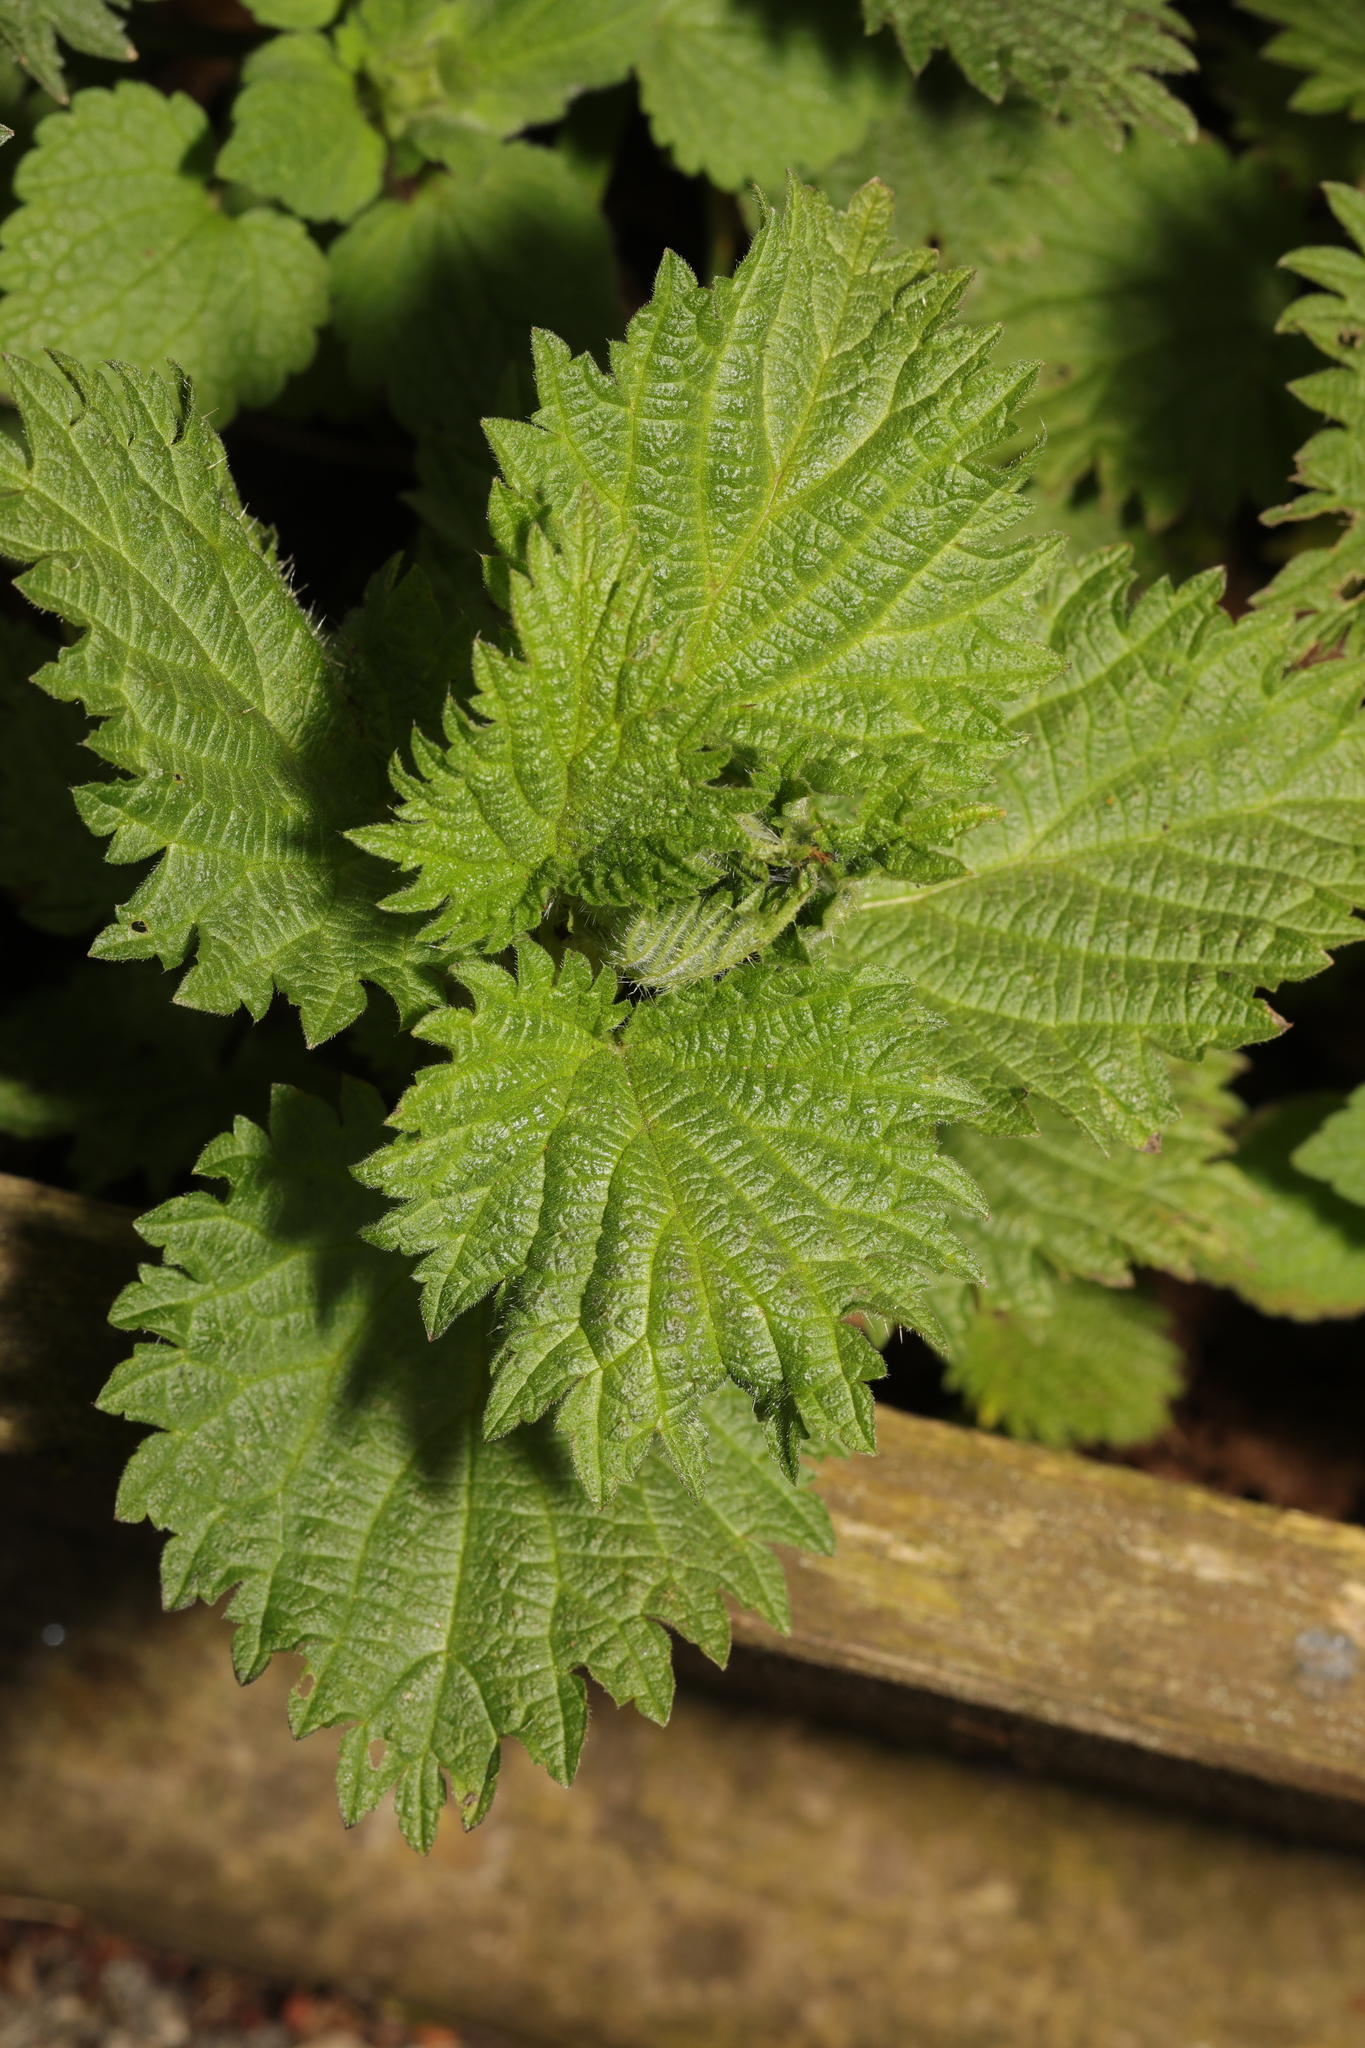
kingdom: Plantae
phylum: Tracheophyta
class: Magnoliopsida
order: Rosales
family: Urticaceae
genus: Urtica
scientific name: Urtica dioica
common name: Common nettle
